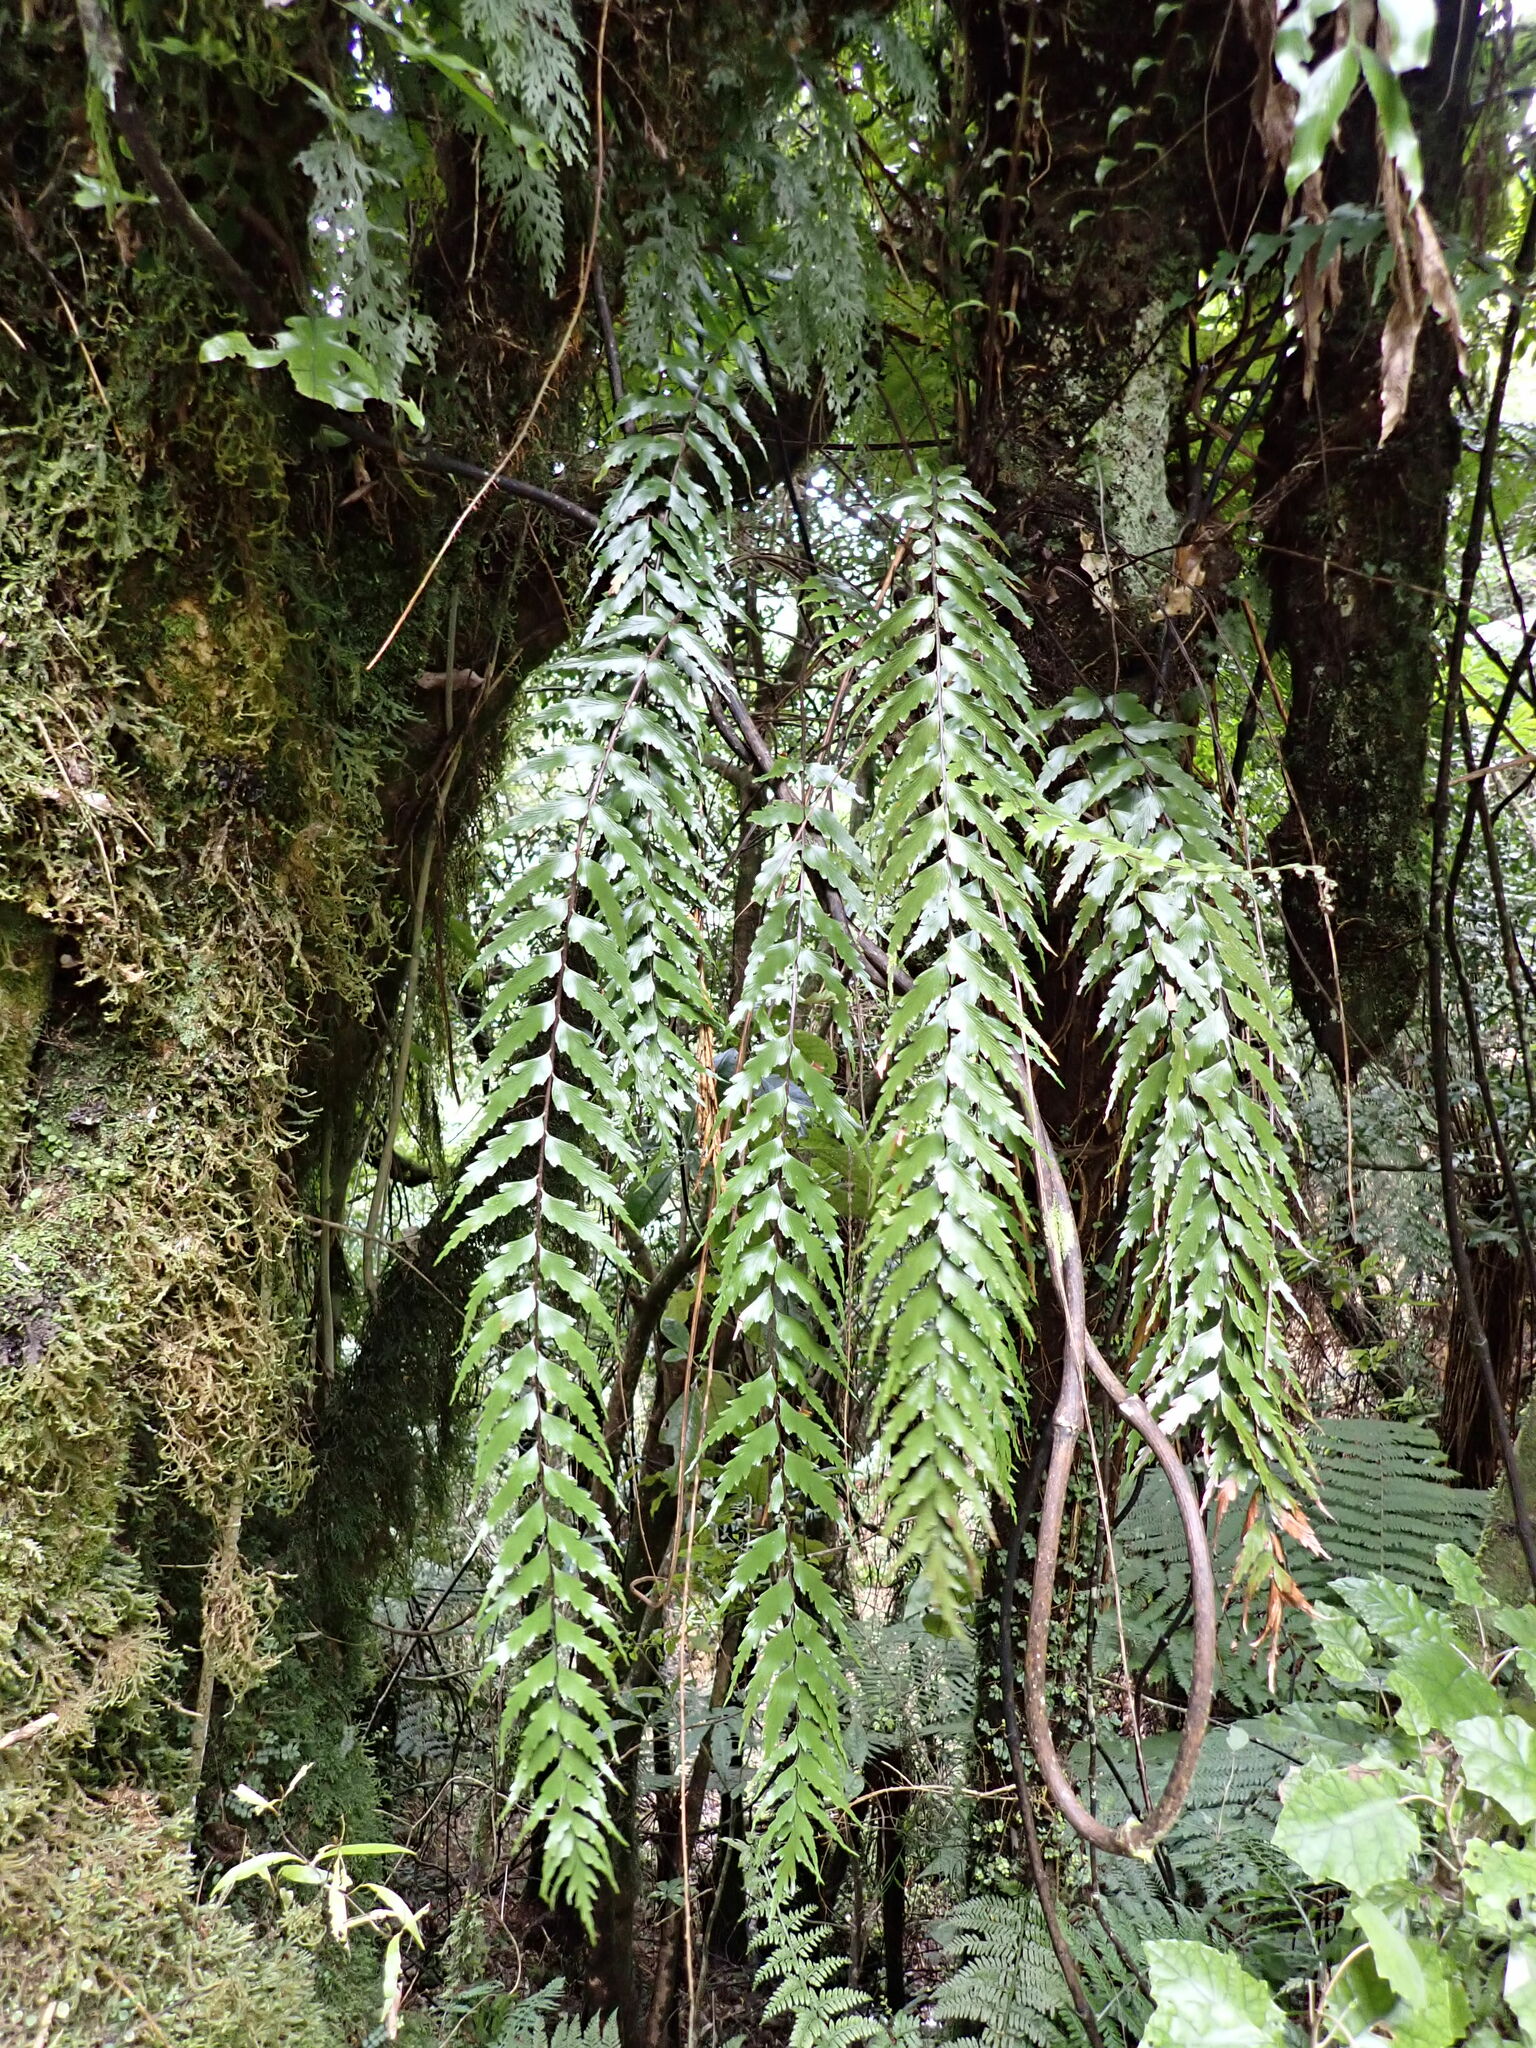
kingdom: Plantae
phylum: Tracheophyta
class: Polypodiopsida
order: Polypodiales
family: Aspleniaceae
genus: Asplenium
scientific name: Asplenium polyodon
